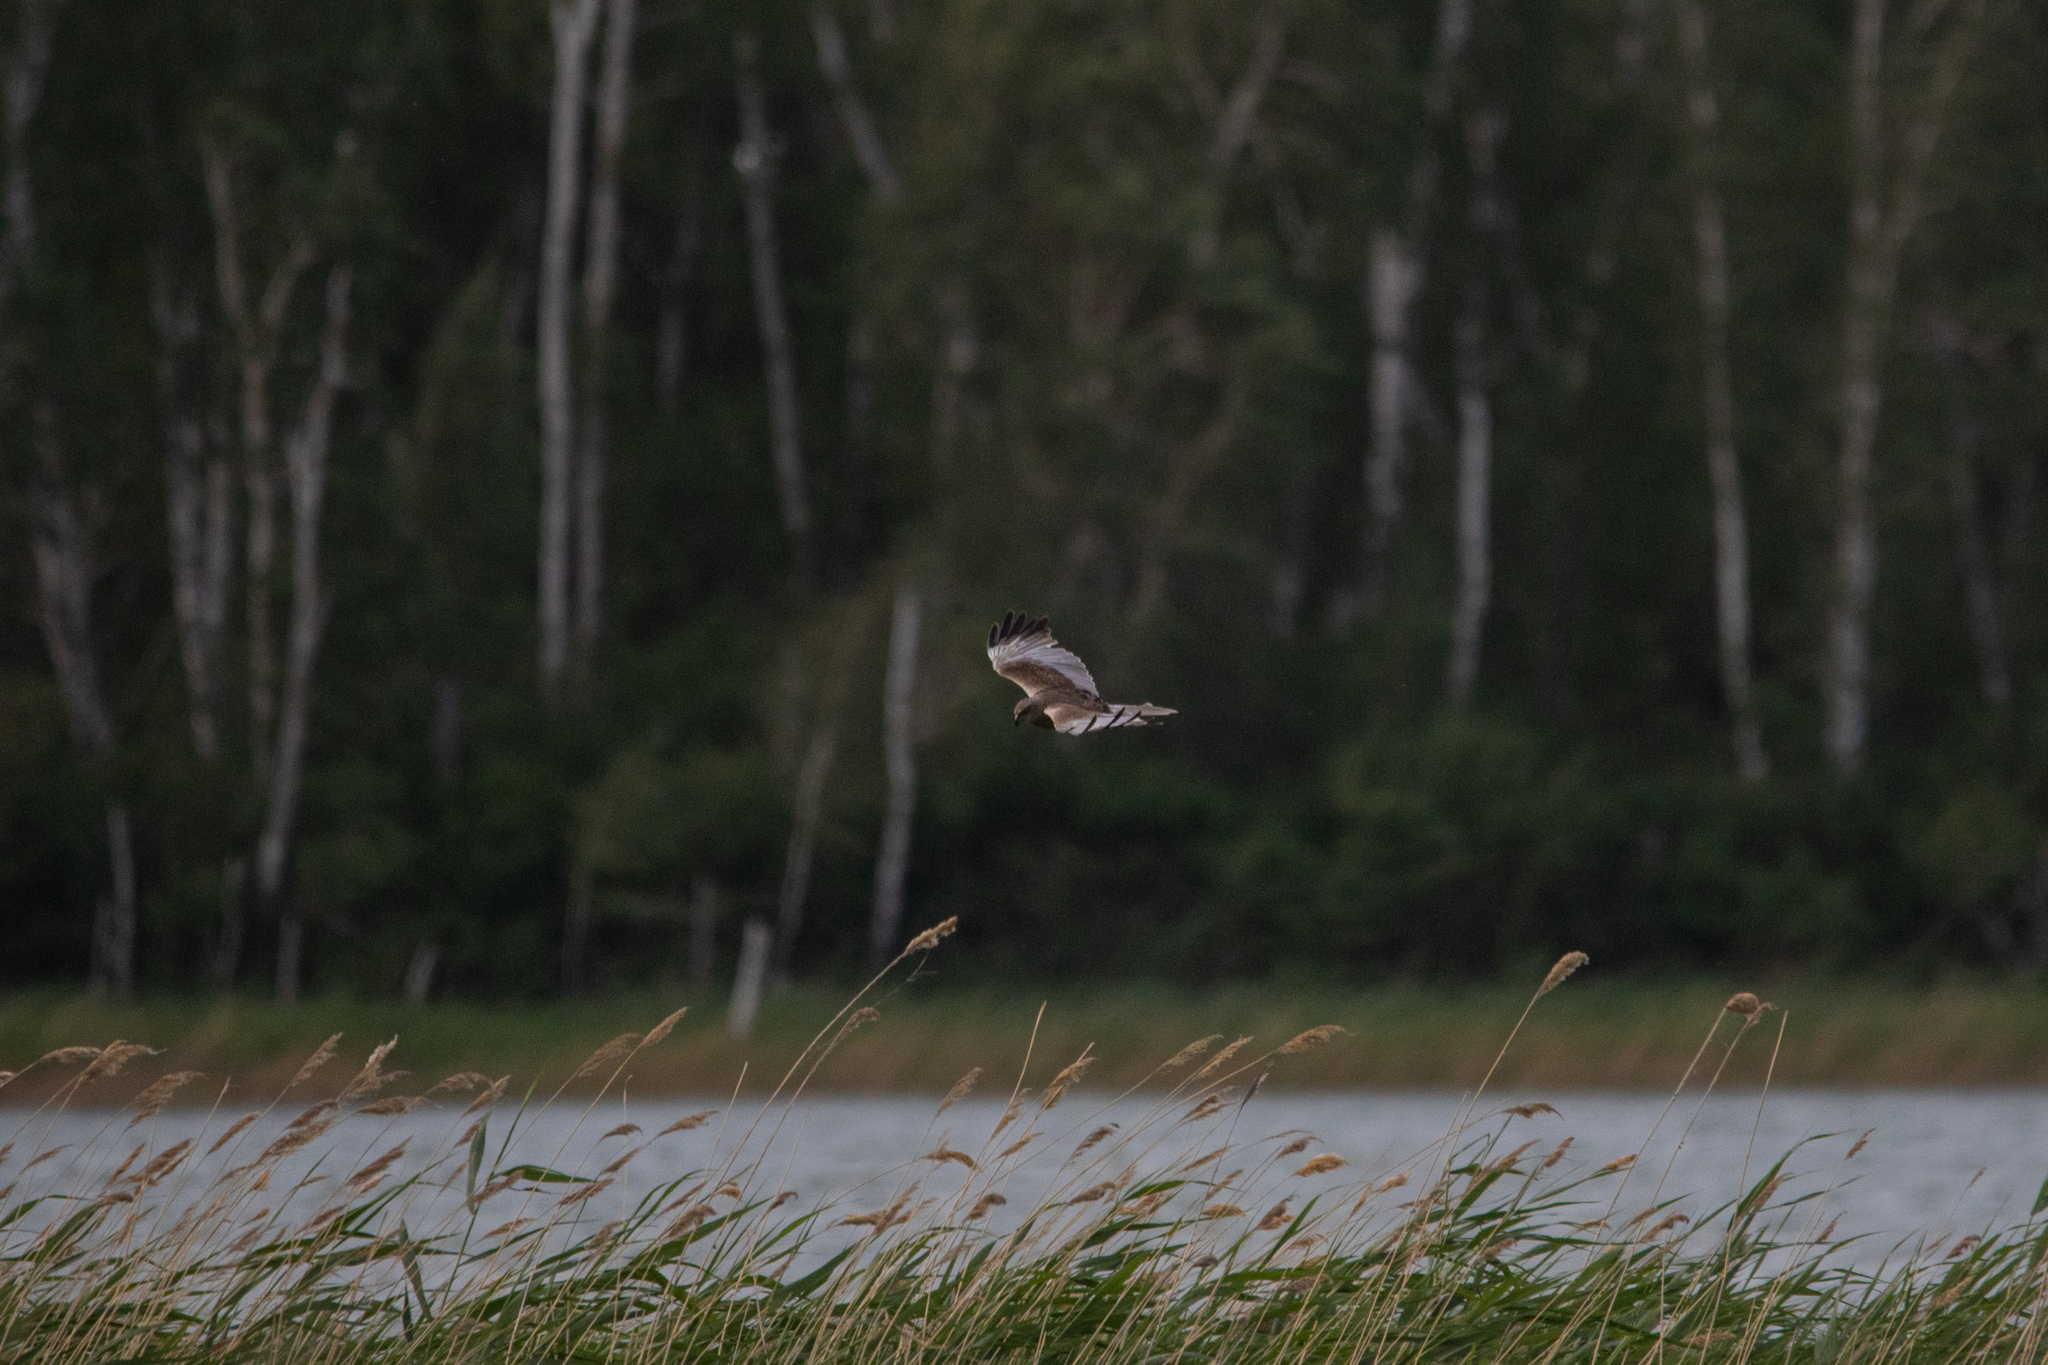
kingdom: Animalia
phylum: Chordata
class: Aves
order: Accipitriformes
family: Accipitridae
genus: Circus
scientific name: Circus aeruginosus
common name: Western marsh harrier
